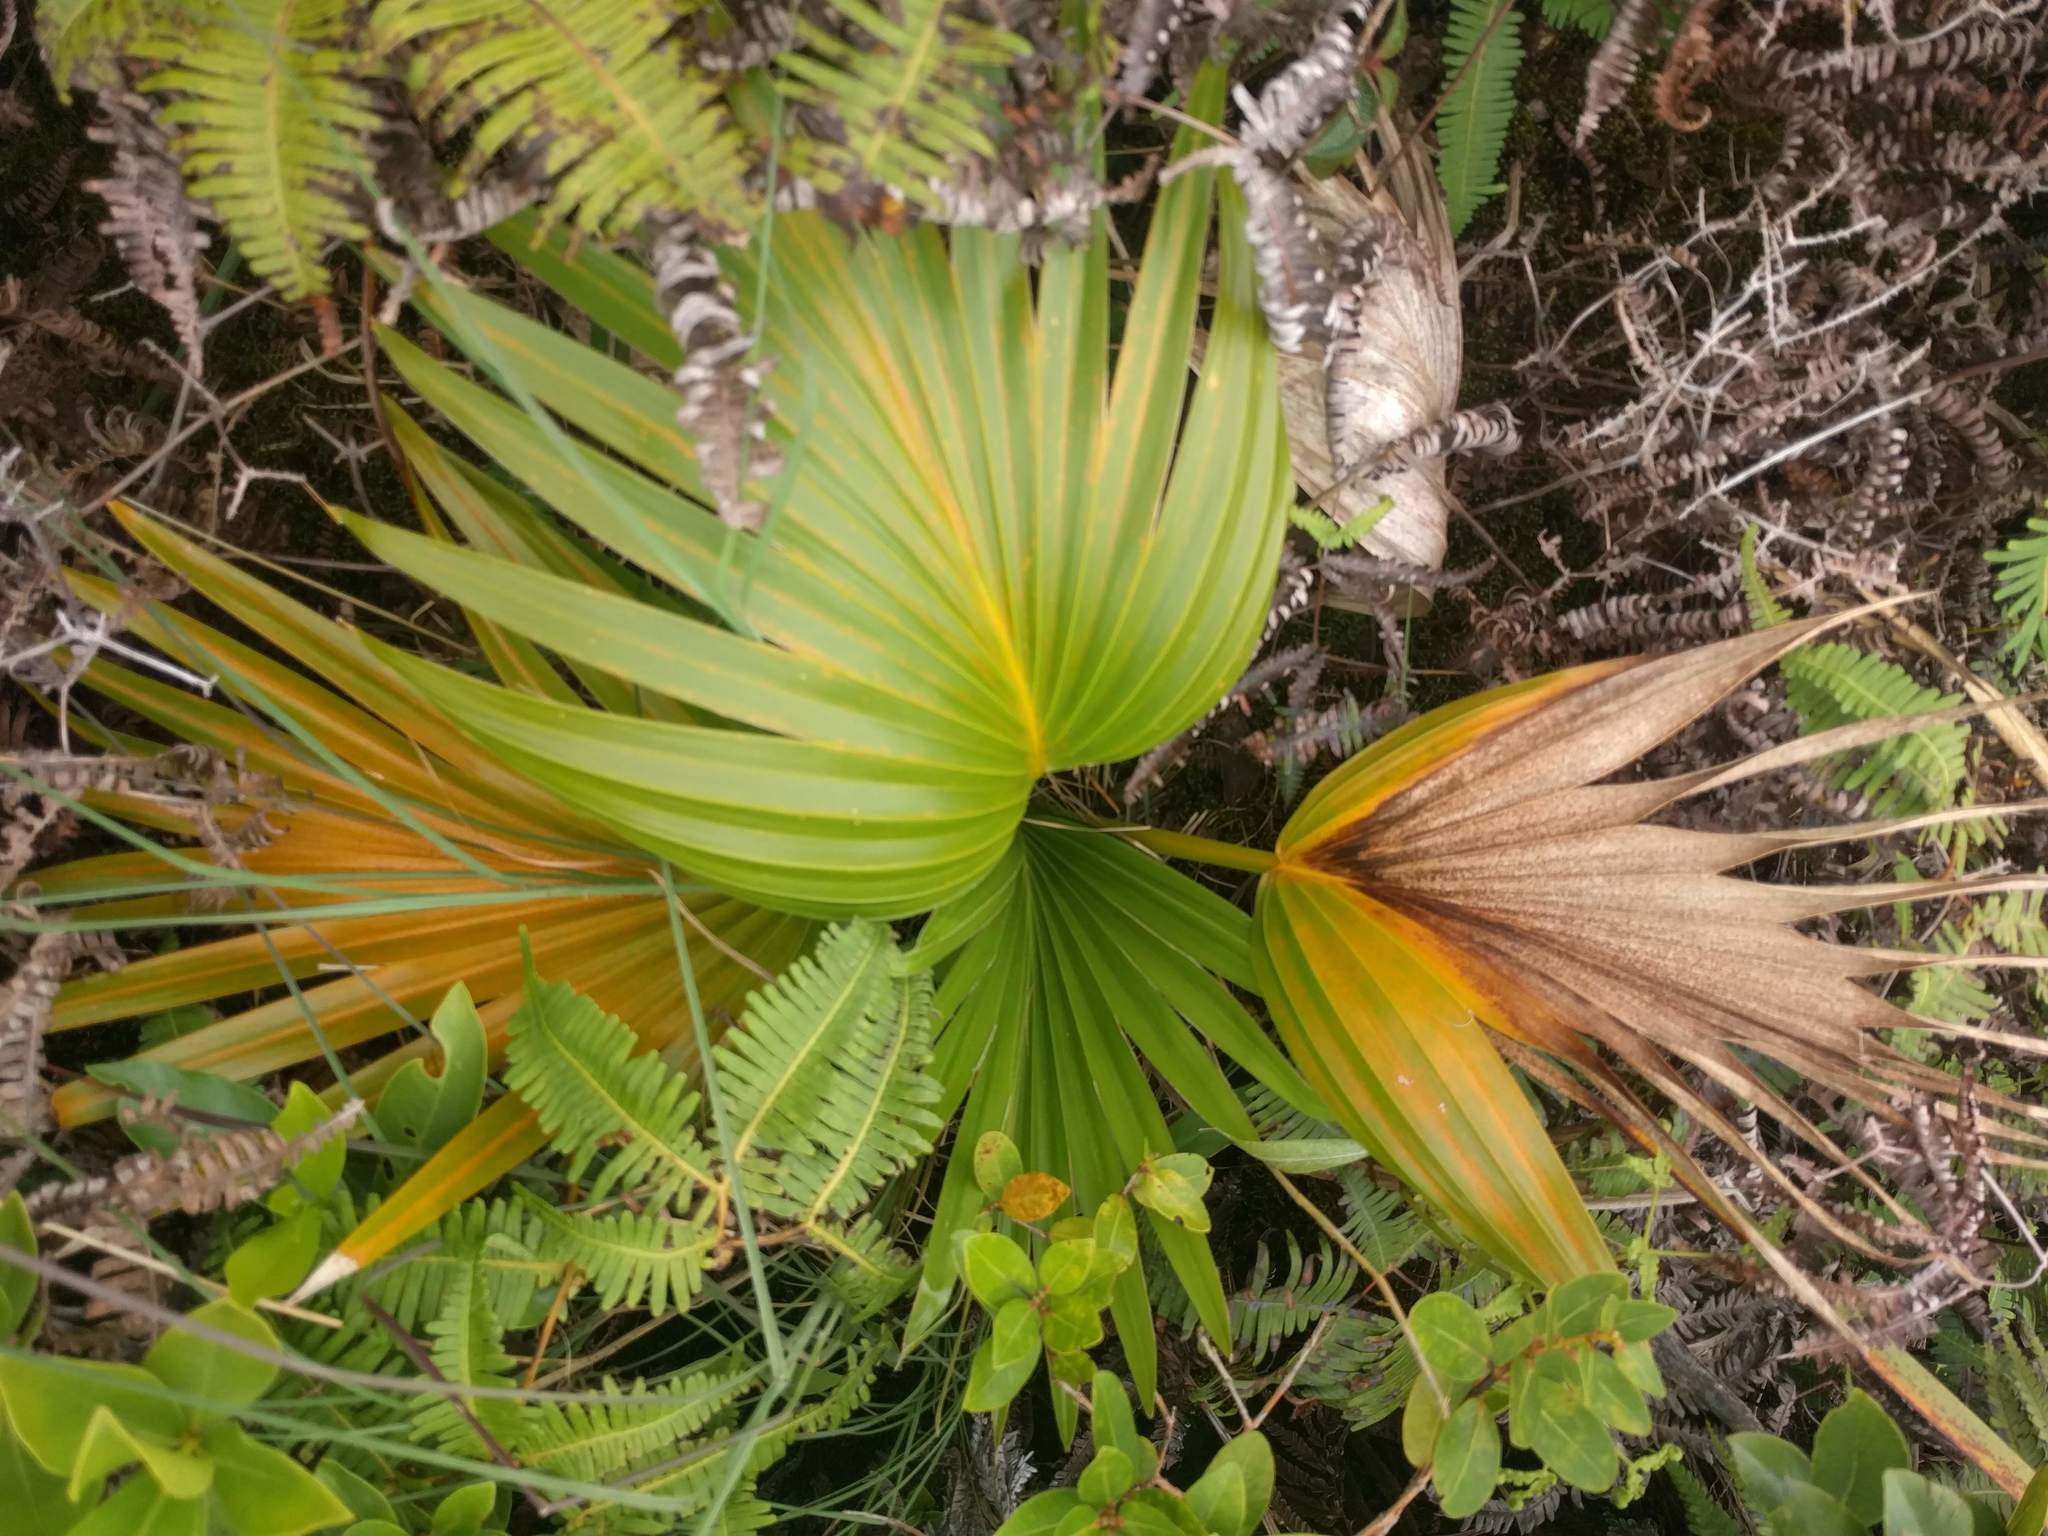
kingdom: Plantae
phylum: Tracheophyta
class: Liliopsida
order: Arecales
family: Arecaceae
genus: Pritchardia
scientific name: Pritchardia martii
